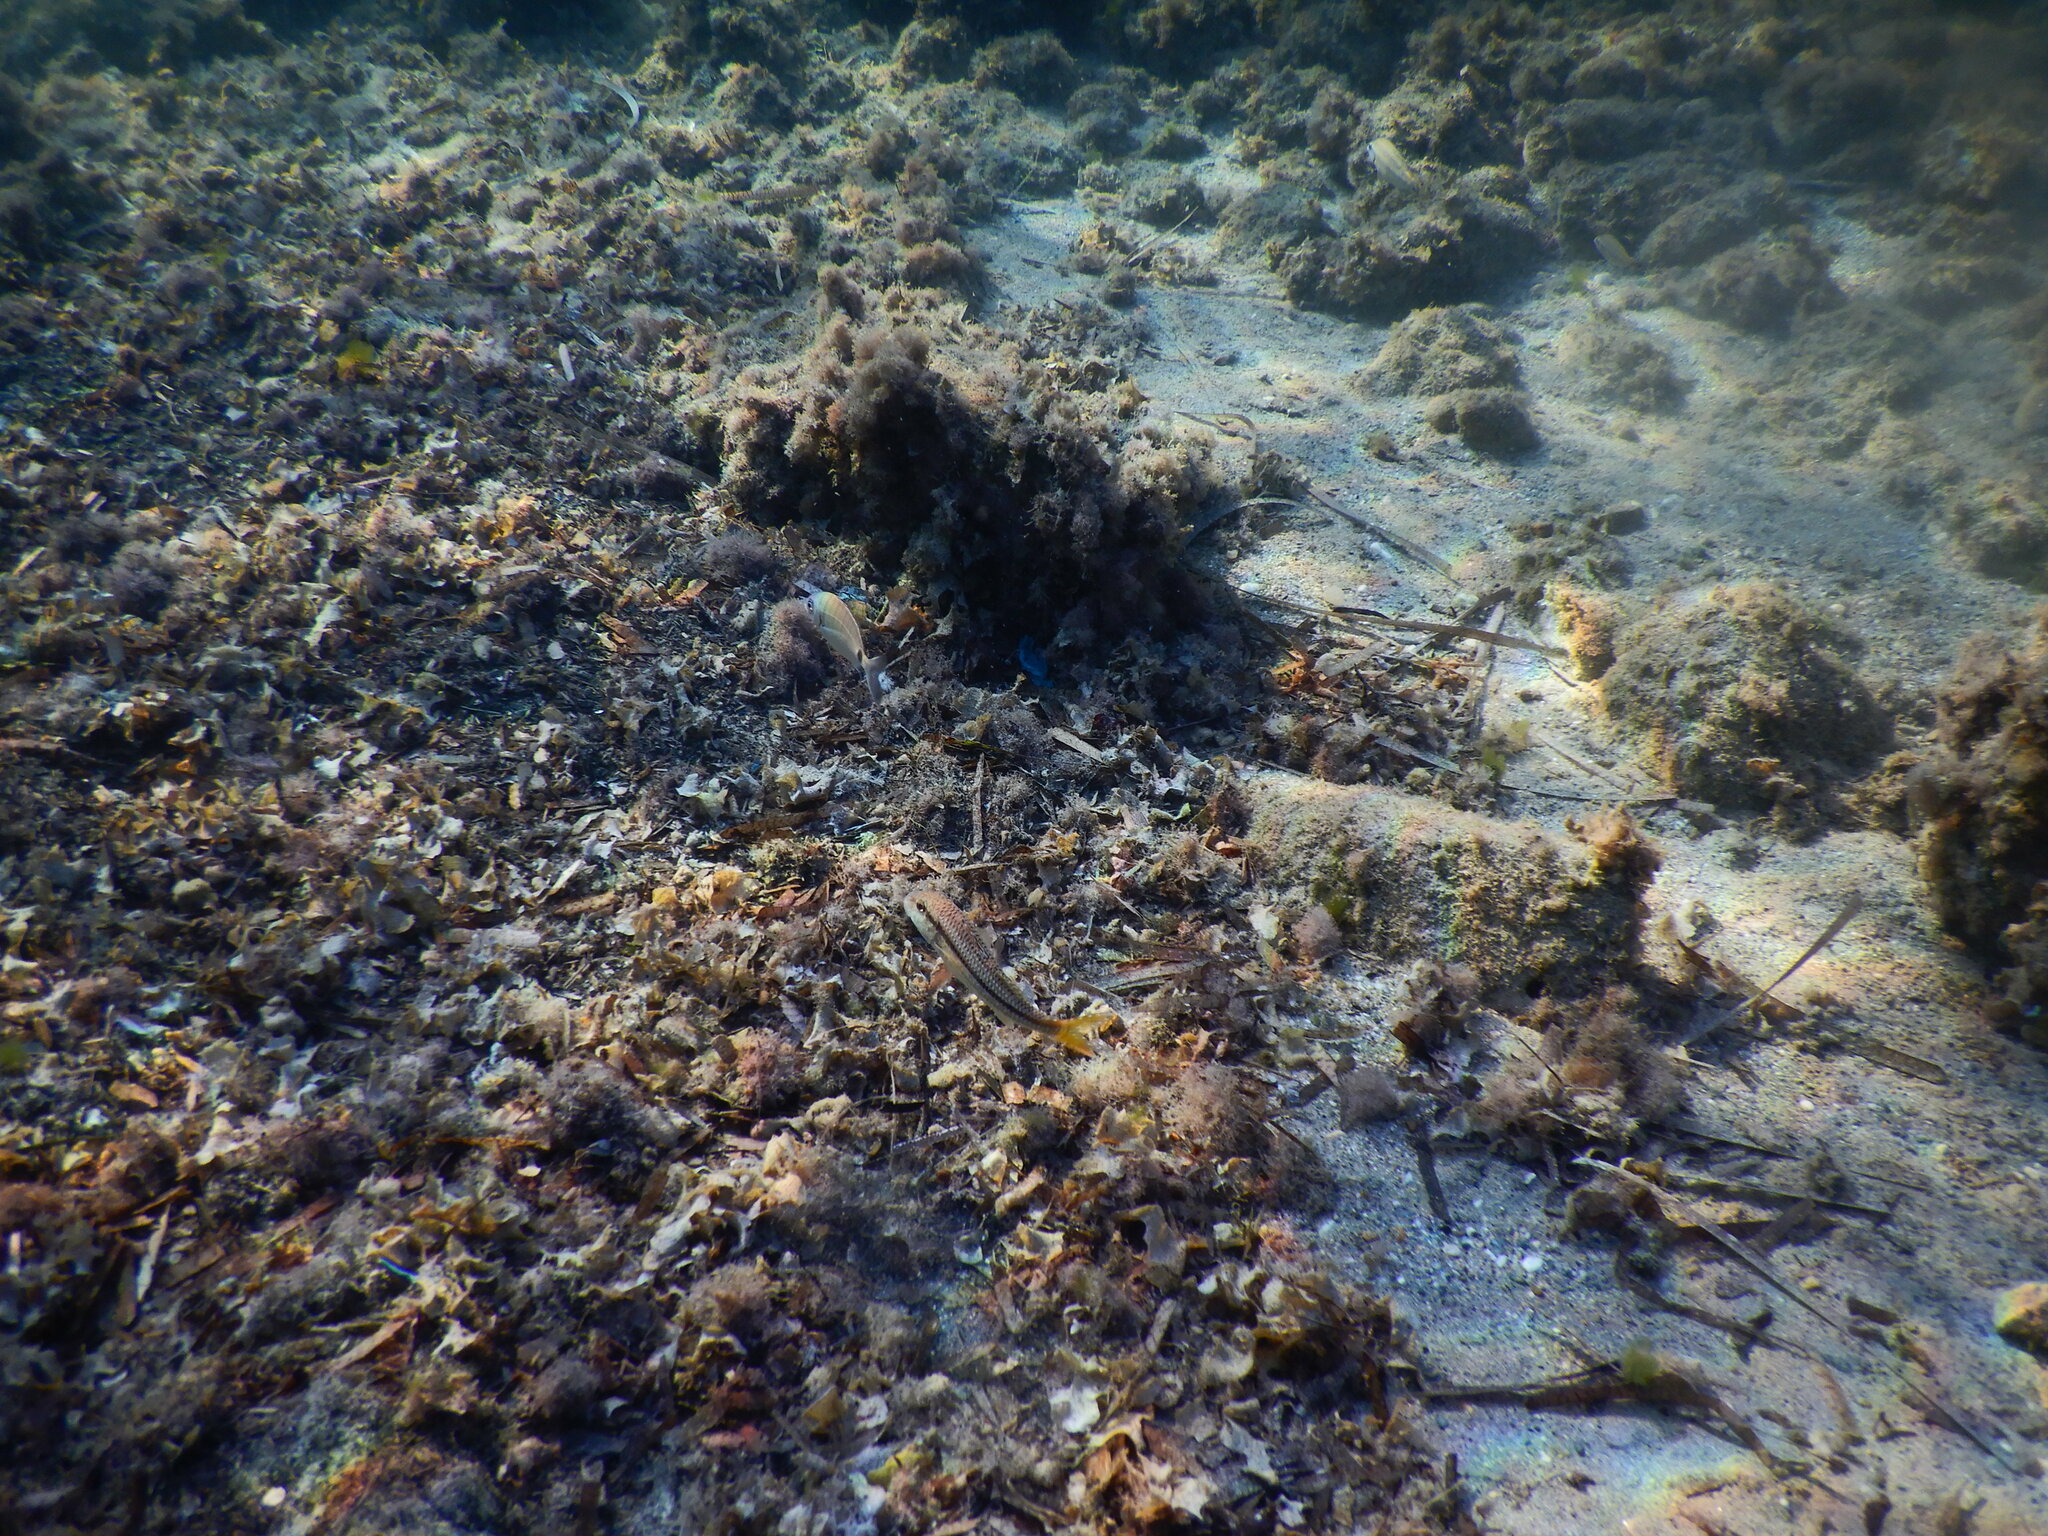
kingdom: Animalia
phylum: Chordata
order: Perciformes
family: Mullidae
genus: Mullus
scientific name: Mullus surmuletus
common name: Red mullet
